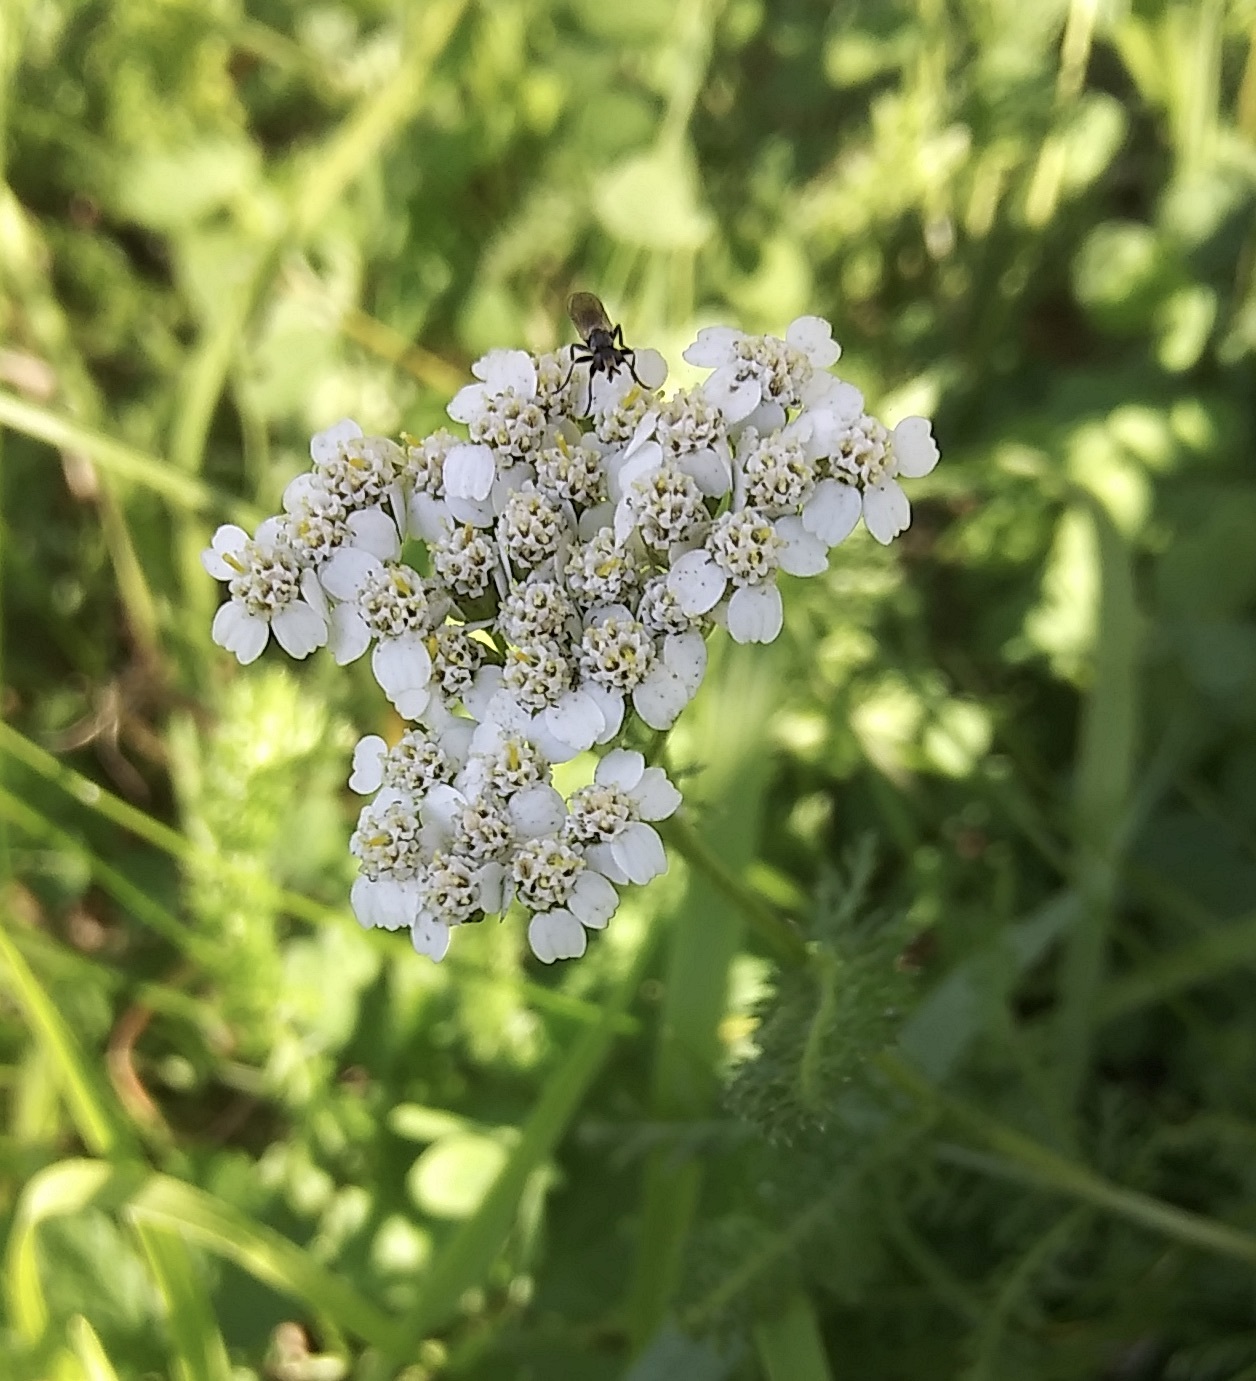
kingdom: Plantae
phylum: Tracheophyta
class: Magnoliopsida
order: Asterales
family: Asteraceae
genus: Achillea
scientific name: Achillea millefolium
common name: Yarrow
